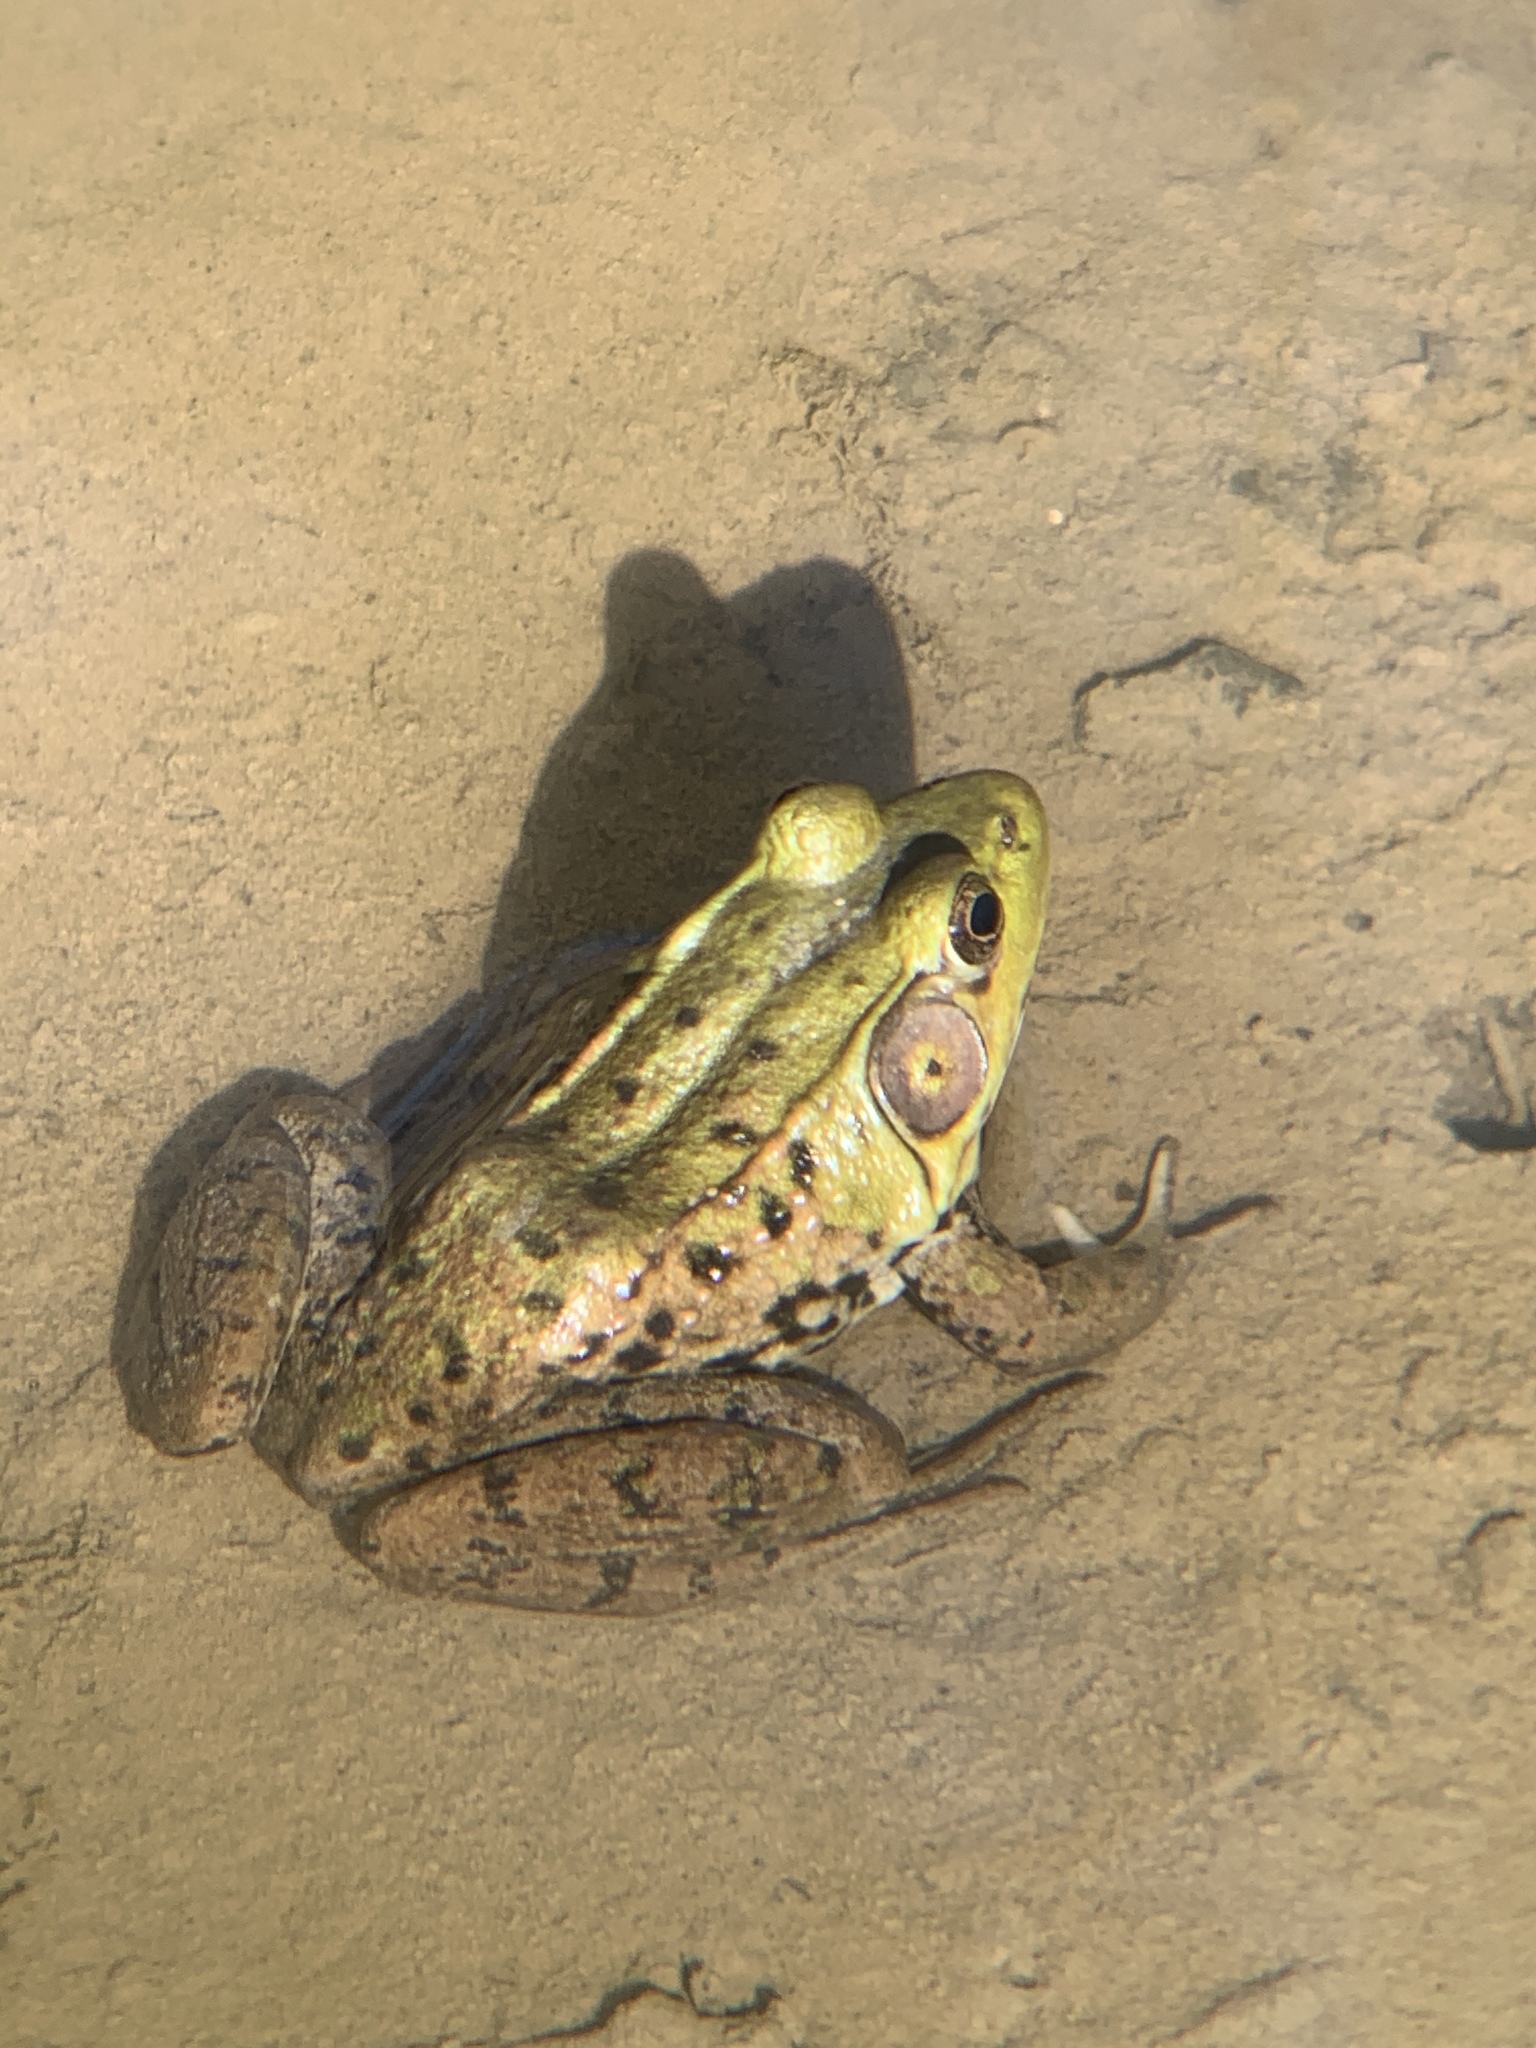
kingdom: Animalia
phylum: Chordata
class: Amphibia
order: Anura
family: Ranidae
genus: Lithobates
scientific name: Lithobates clamitans
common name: Green frog
